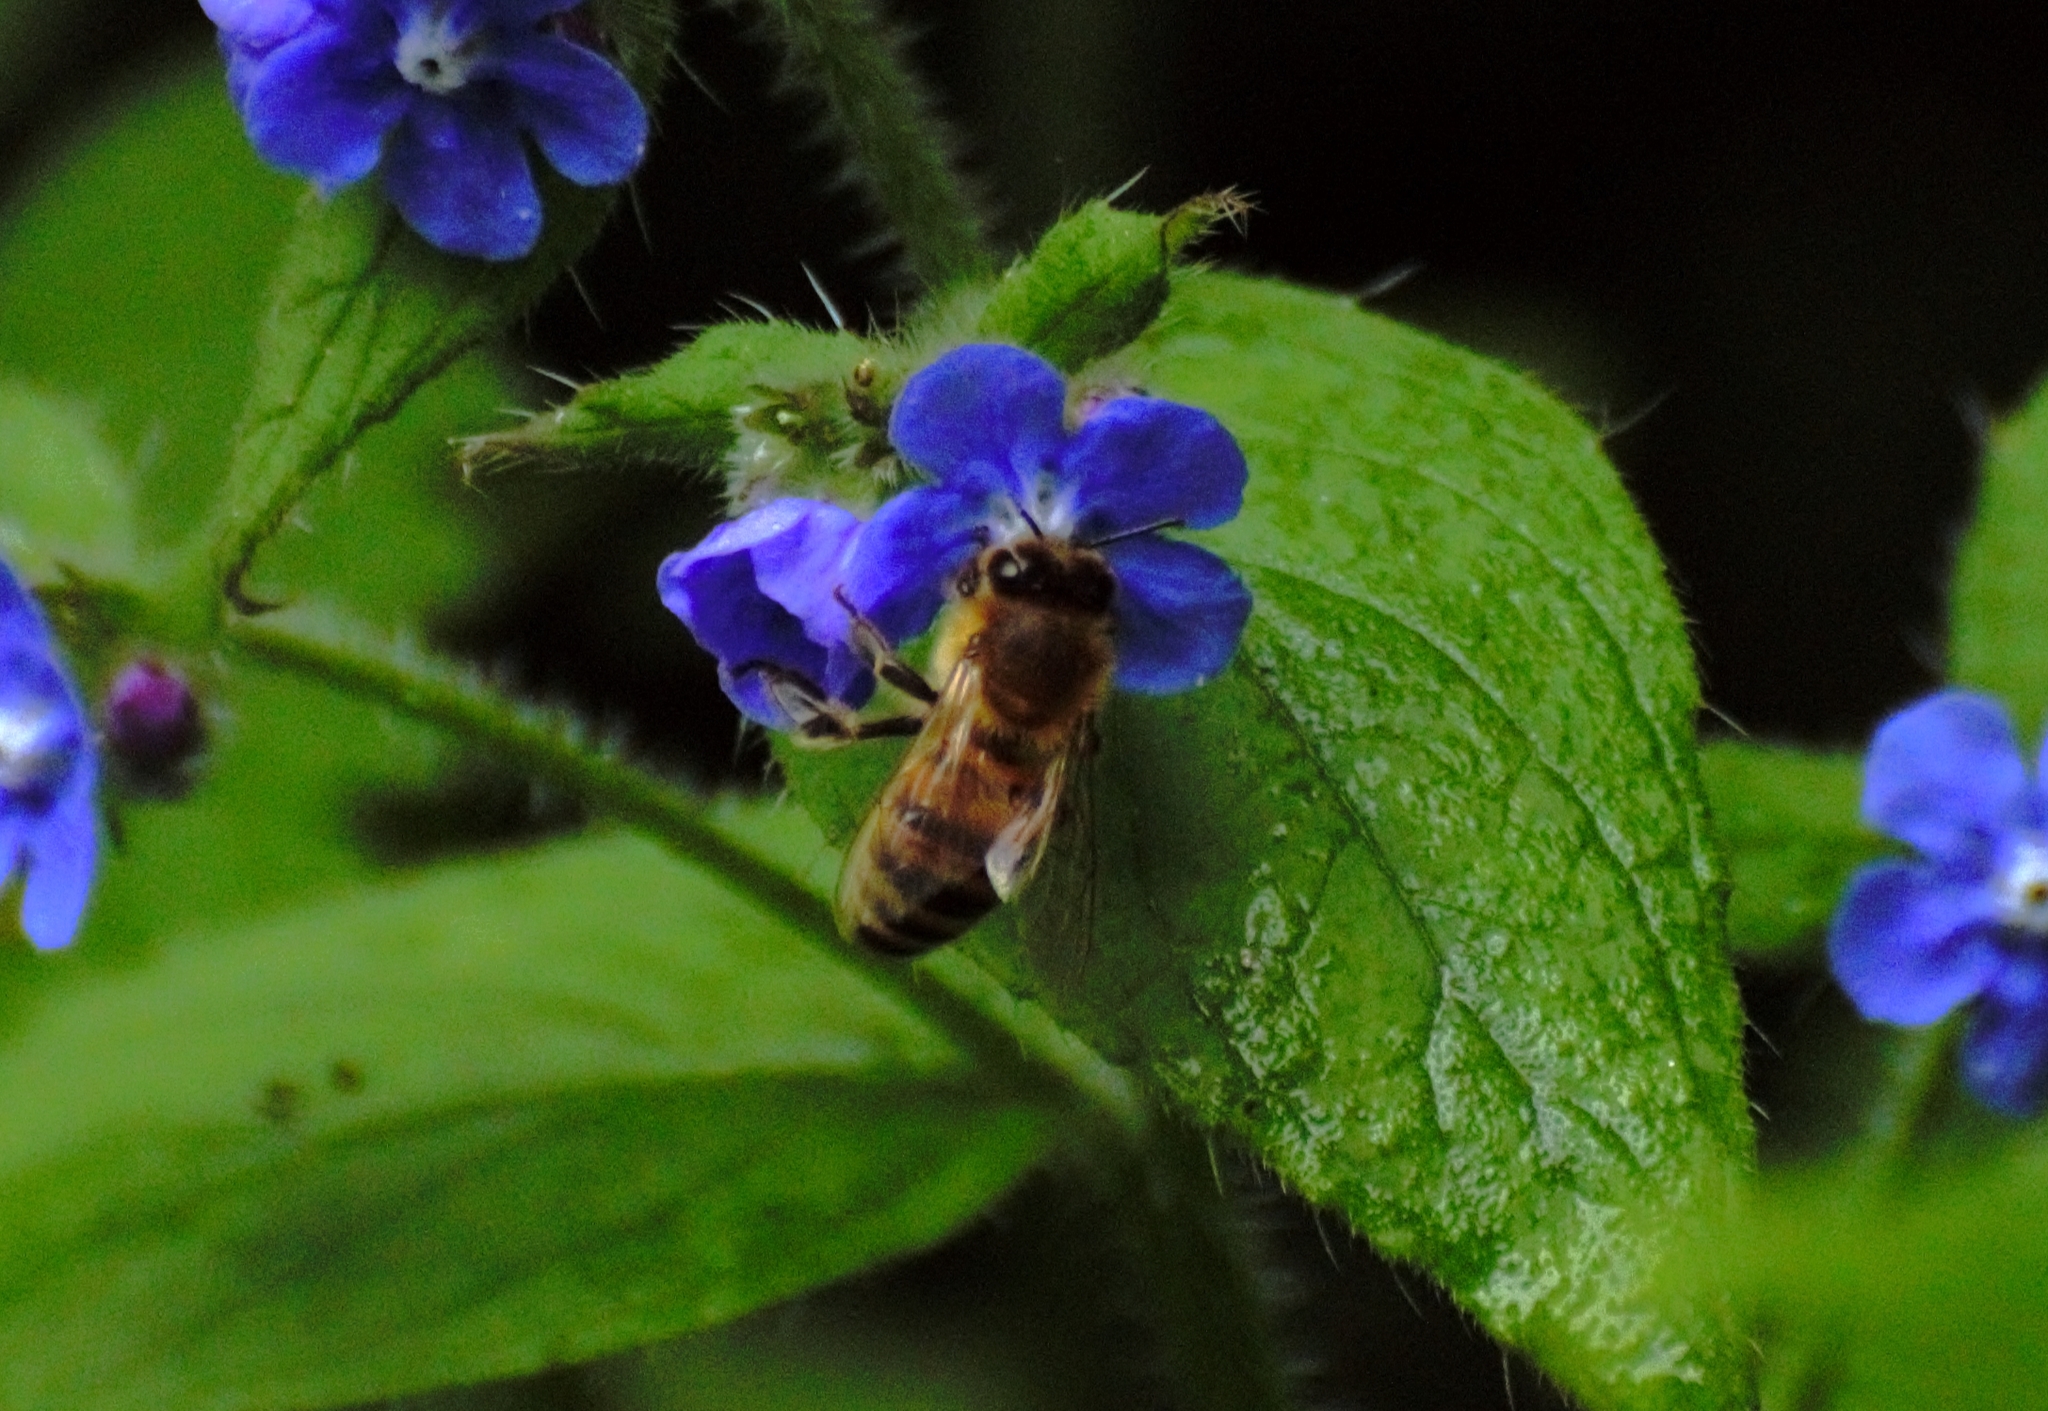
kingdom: Animalia
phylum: Arthropoda
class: Insecta
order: Hymenoptera
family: Apidae
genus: Apis
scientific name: Apis mellifera
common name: Honey bee
